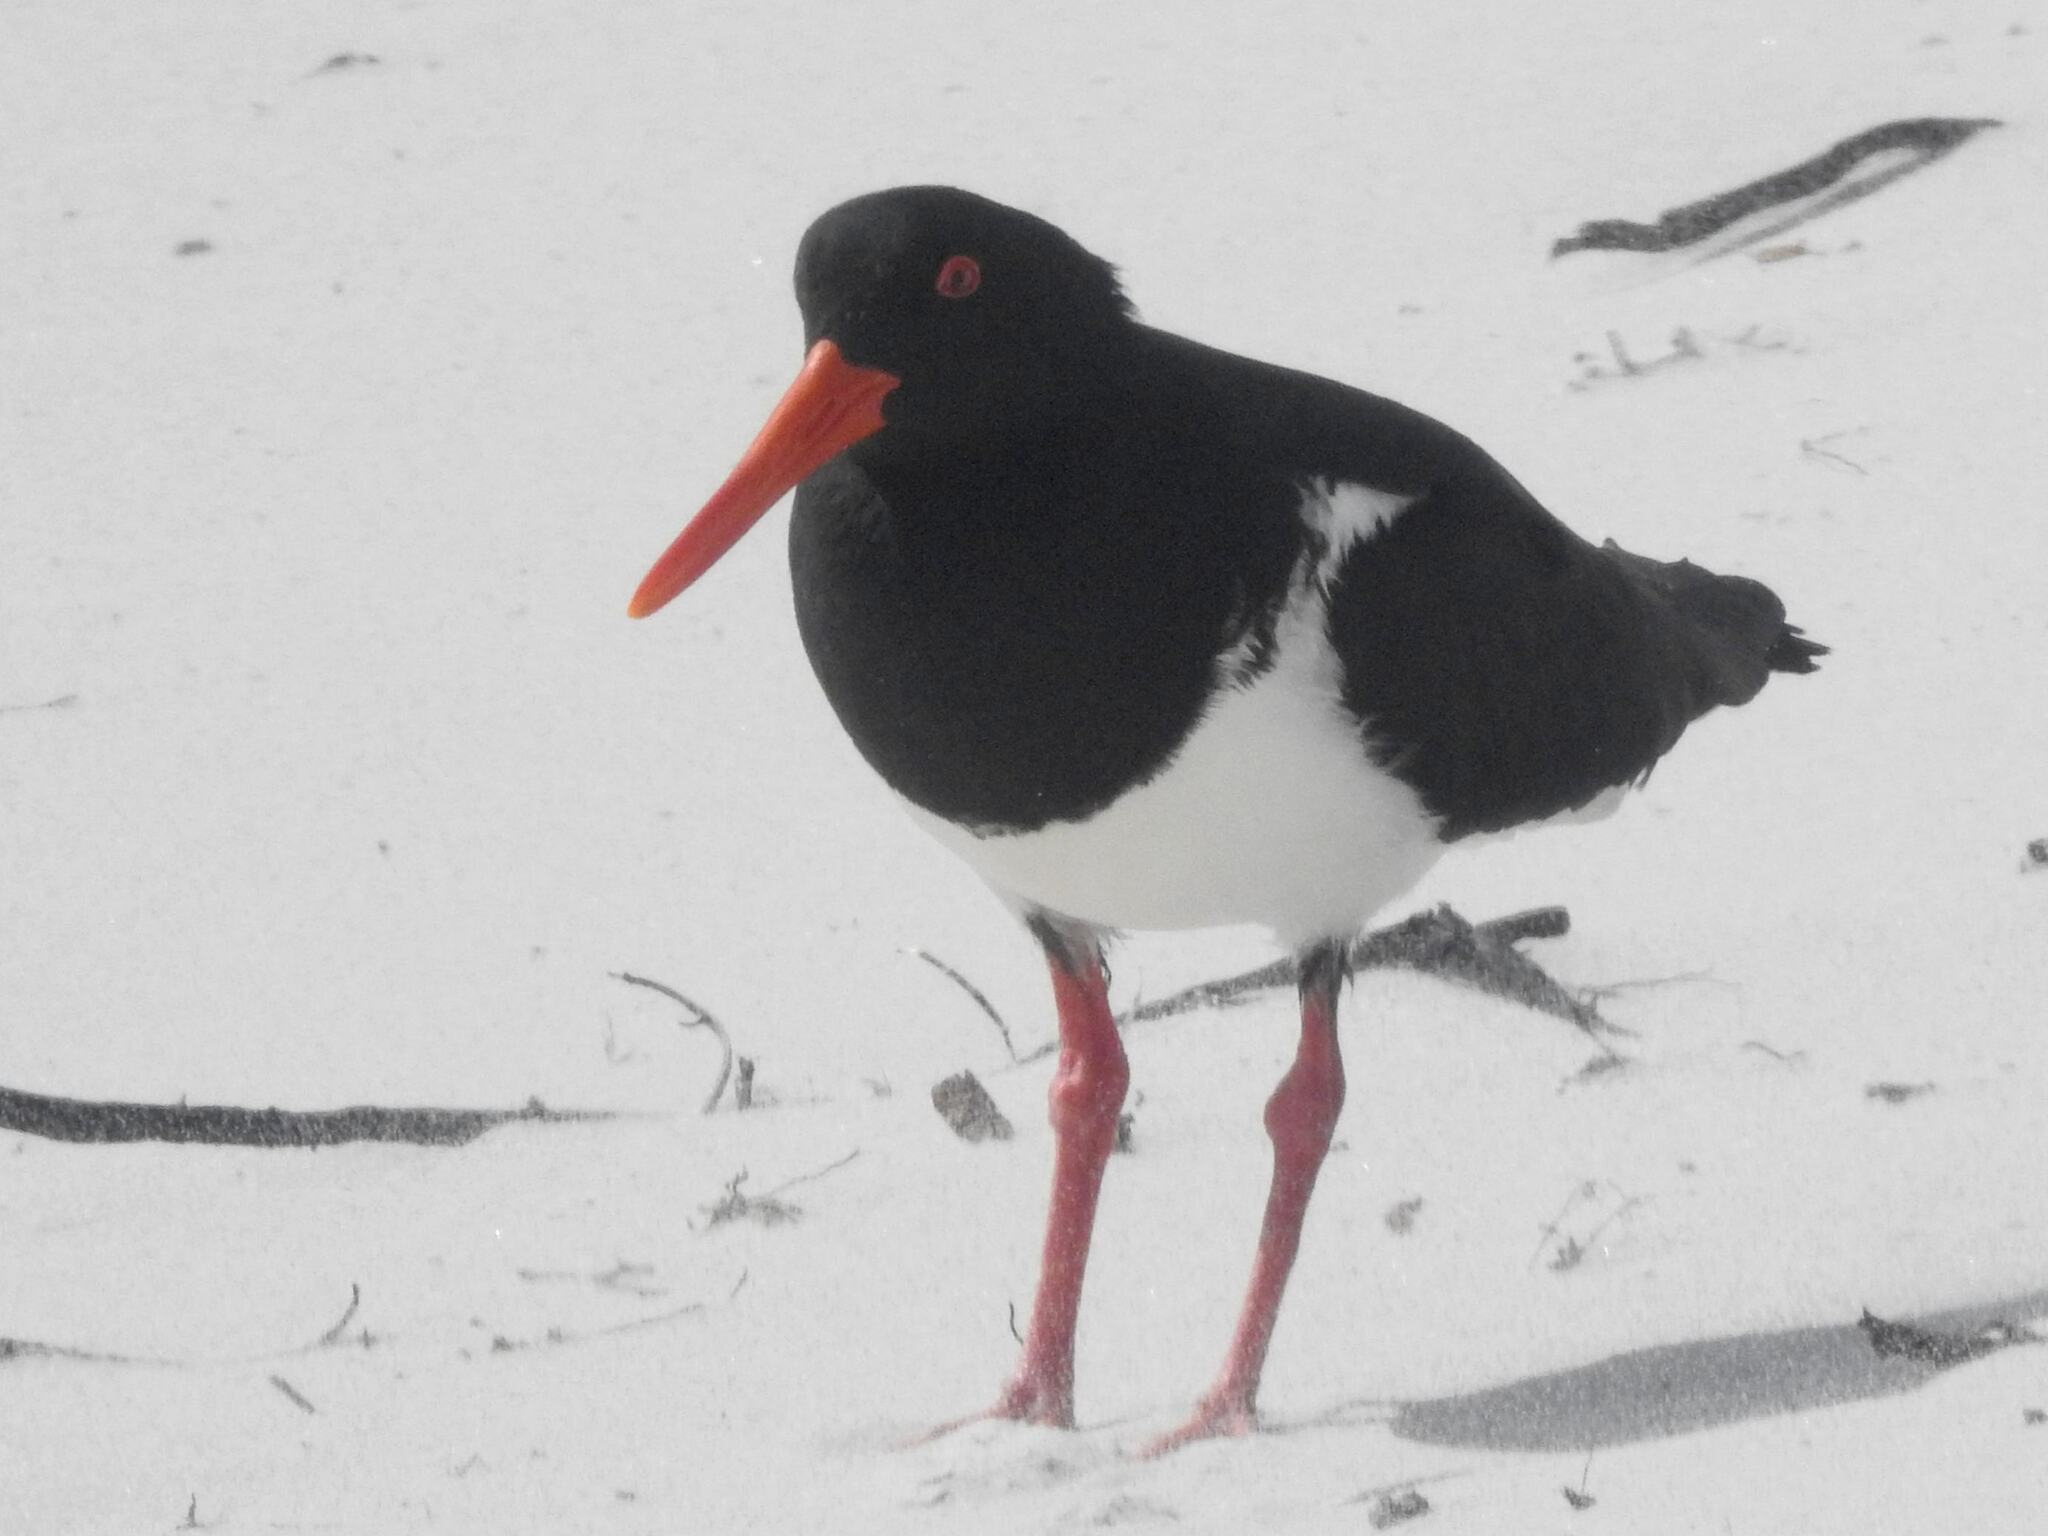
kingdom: Animalia
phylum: Chordata
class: Aves
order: Charadriiformes
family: Haematopodidae
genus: Haematopus
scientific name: Haematopus longirostris
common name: Pied oystercatcher
